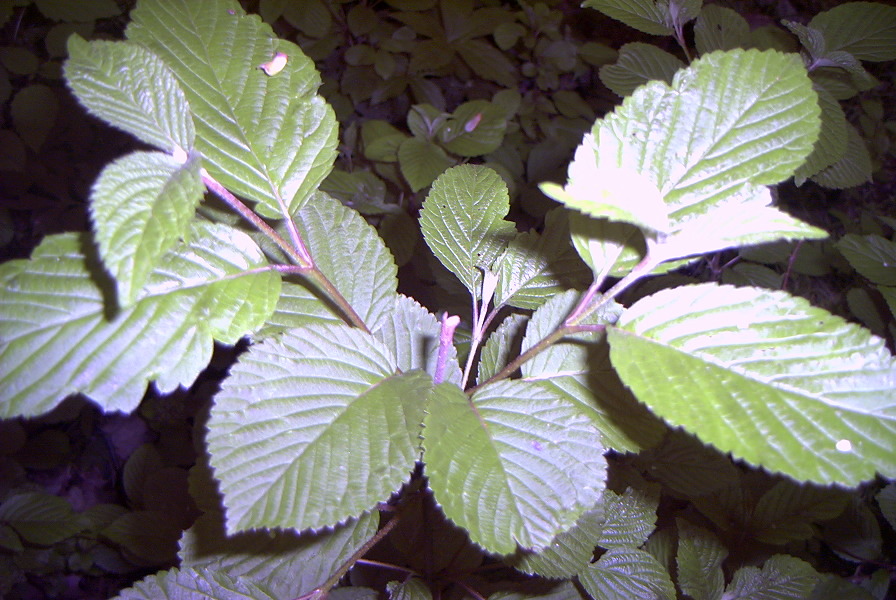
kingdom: Plantae
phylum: Tracheophyta
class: Magnoliopsida
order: Dipsacales
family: Viburnaceae
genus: Viburnum
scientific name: Viburnum plicatum
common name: Japanese snowball
